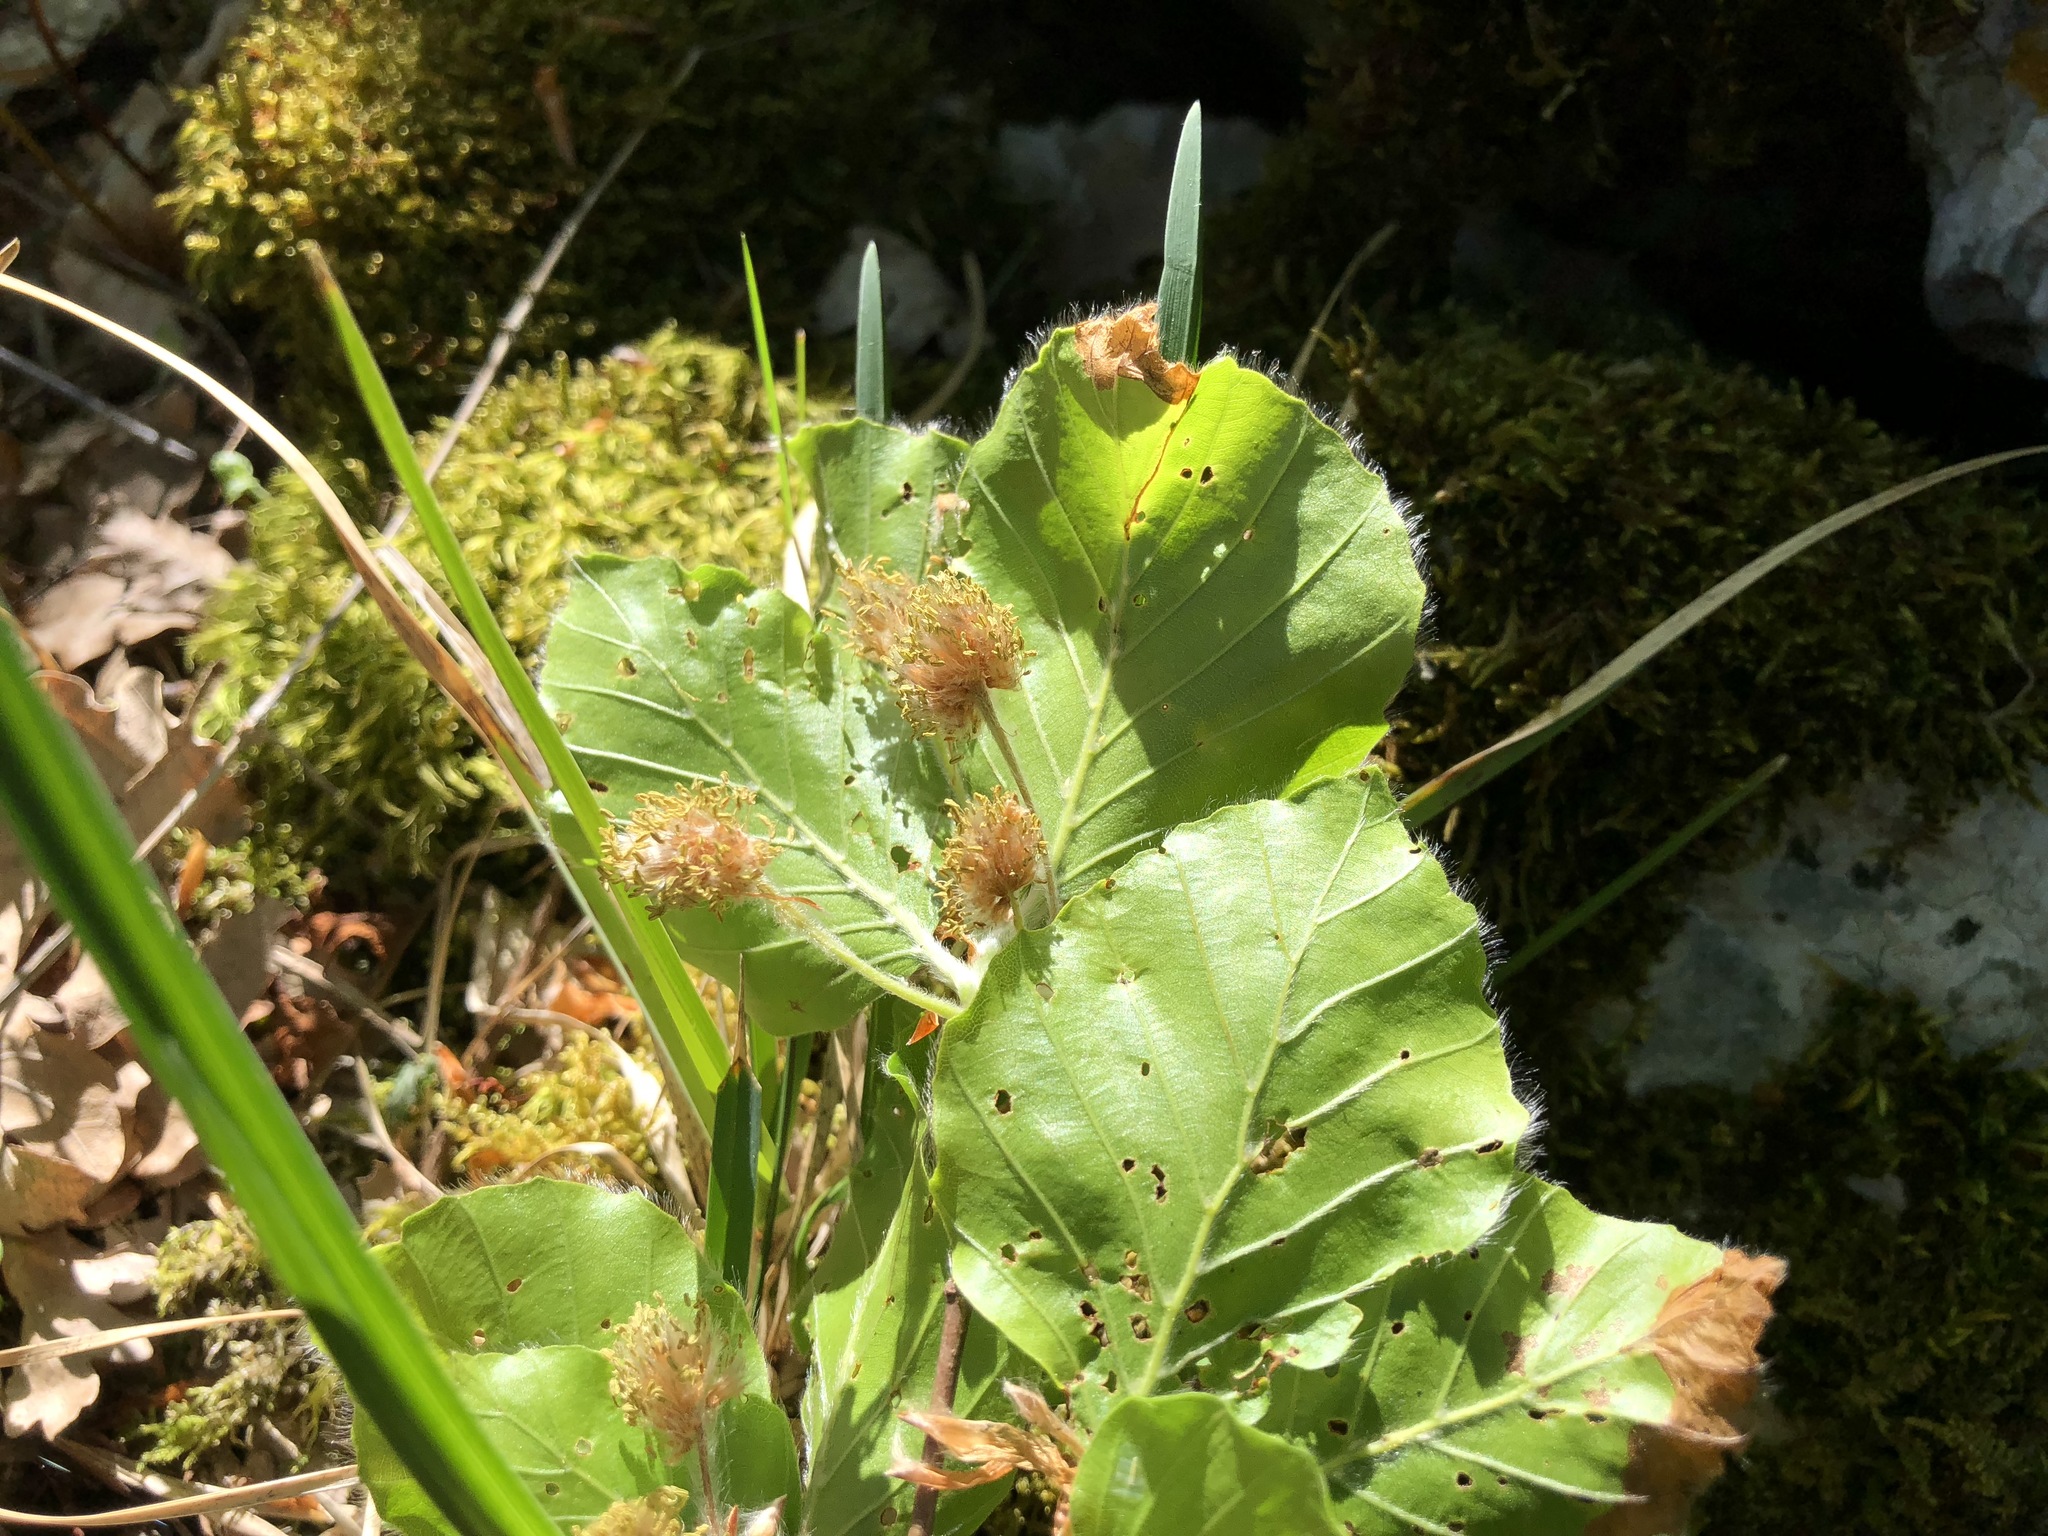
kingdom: Plantae
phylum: Tracheophyta
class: Magnoliopsida
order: Fagales
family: Fagaceae
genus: Fagus
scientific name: Fagus sylvatica
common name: Beech
